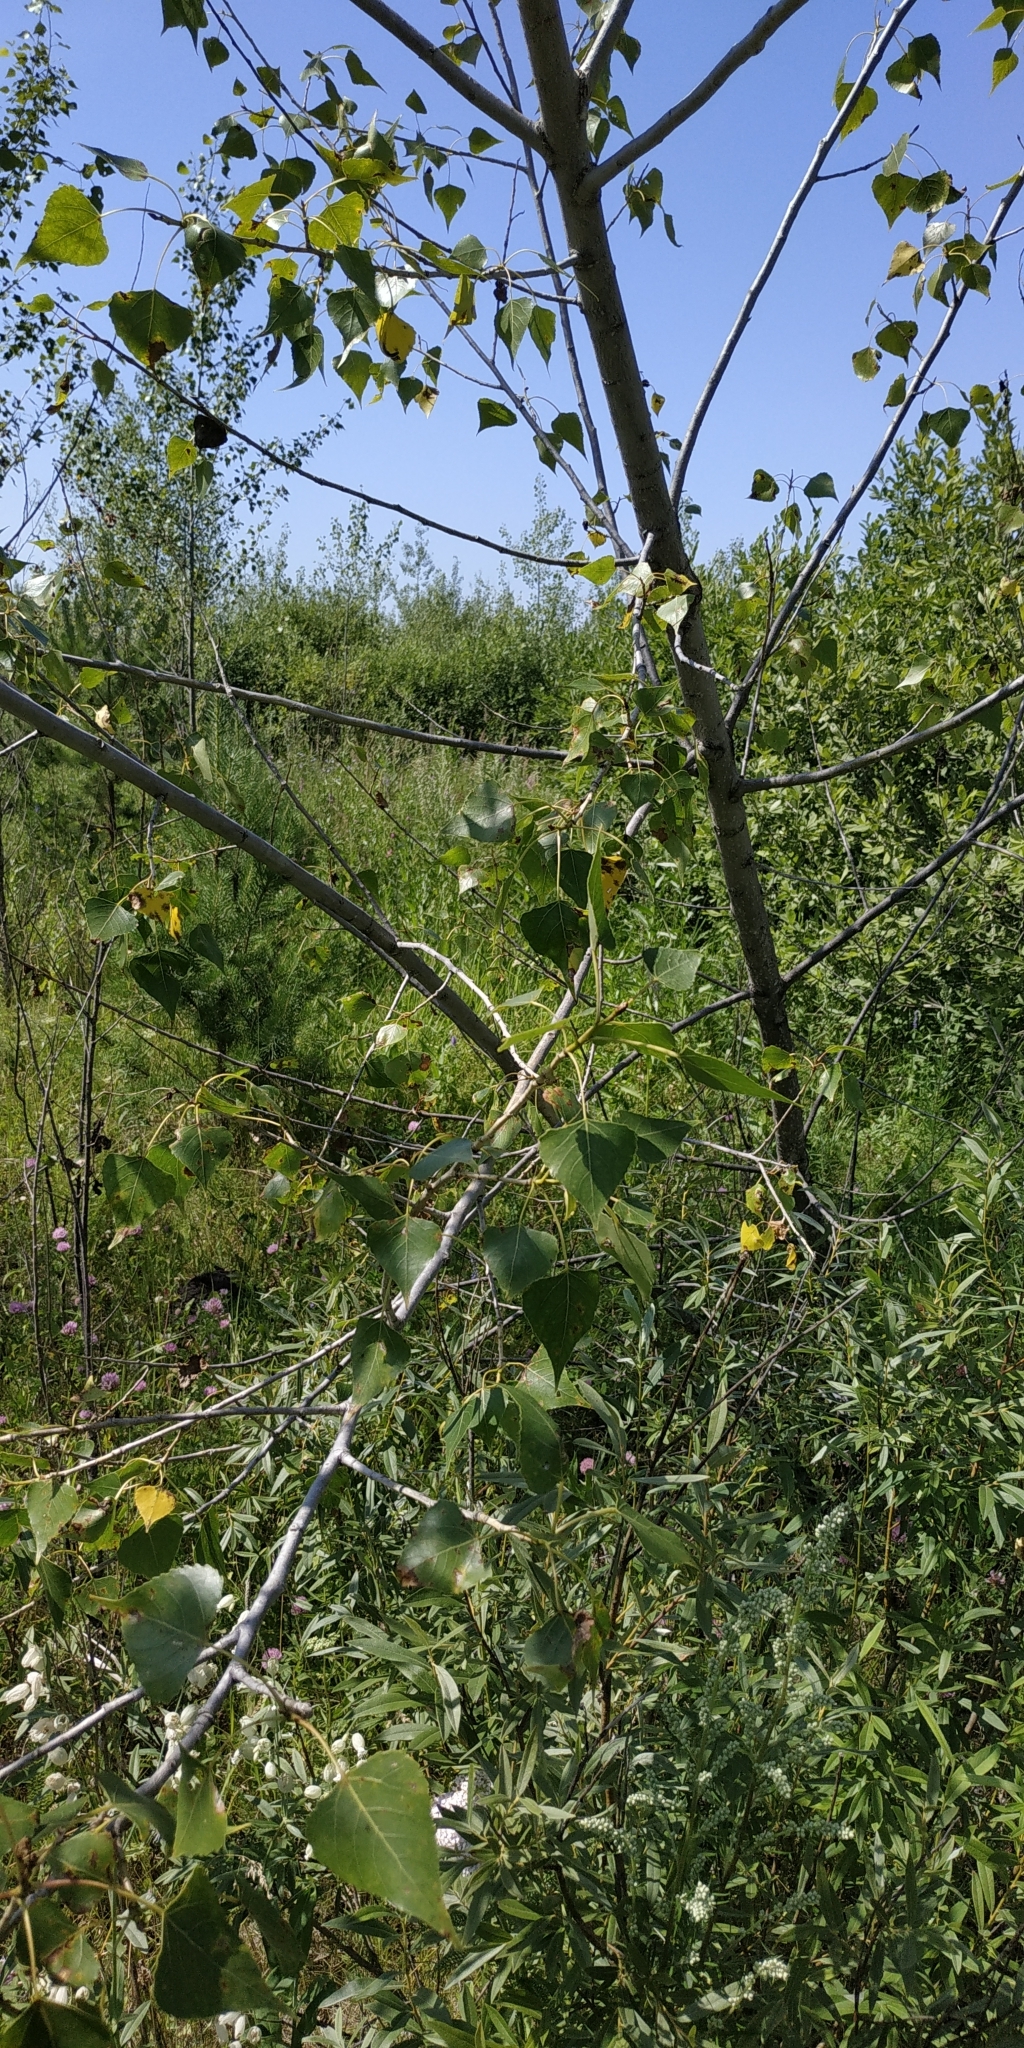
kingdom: Plantae
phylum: Tracheophyta
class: Magnoliopsida
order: Malpighiales
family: Salicaceae
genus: Populus
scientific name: Populus nigra
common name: Black poplar
